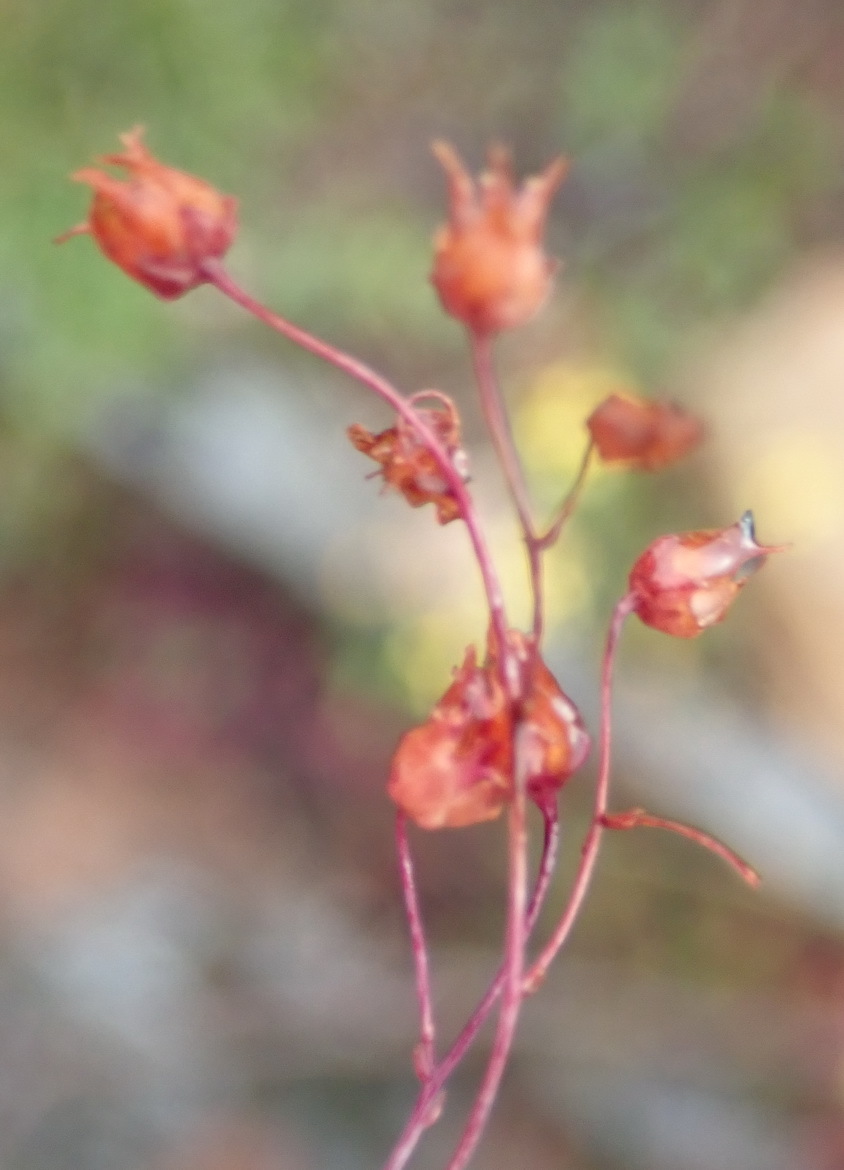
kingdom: Plantae
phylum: Tracheophyta
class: Magnoliopsida
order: Saxifragales
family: Crassulaceae
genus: Crassula
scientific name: Crassula umbella
